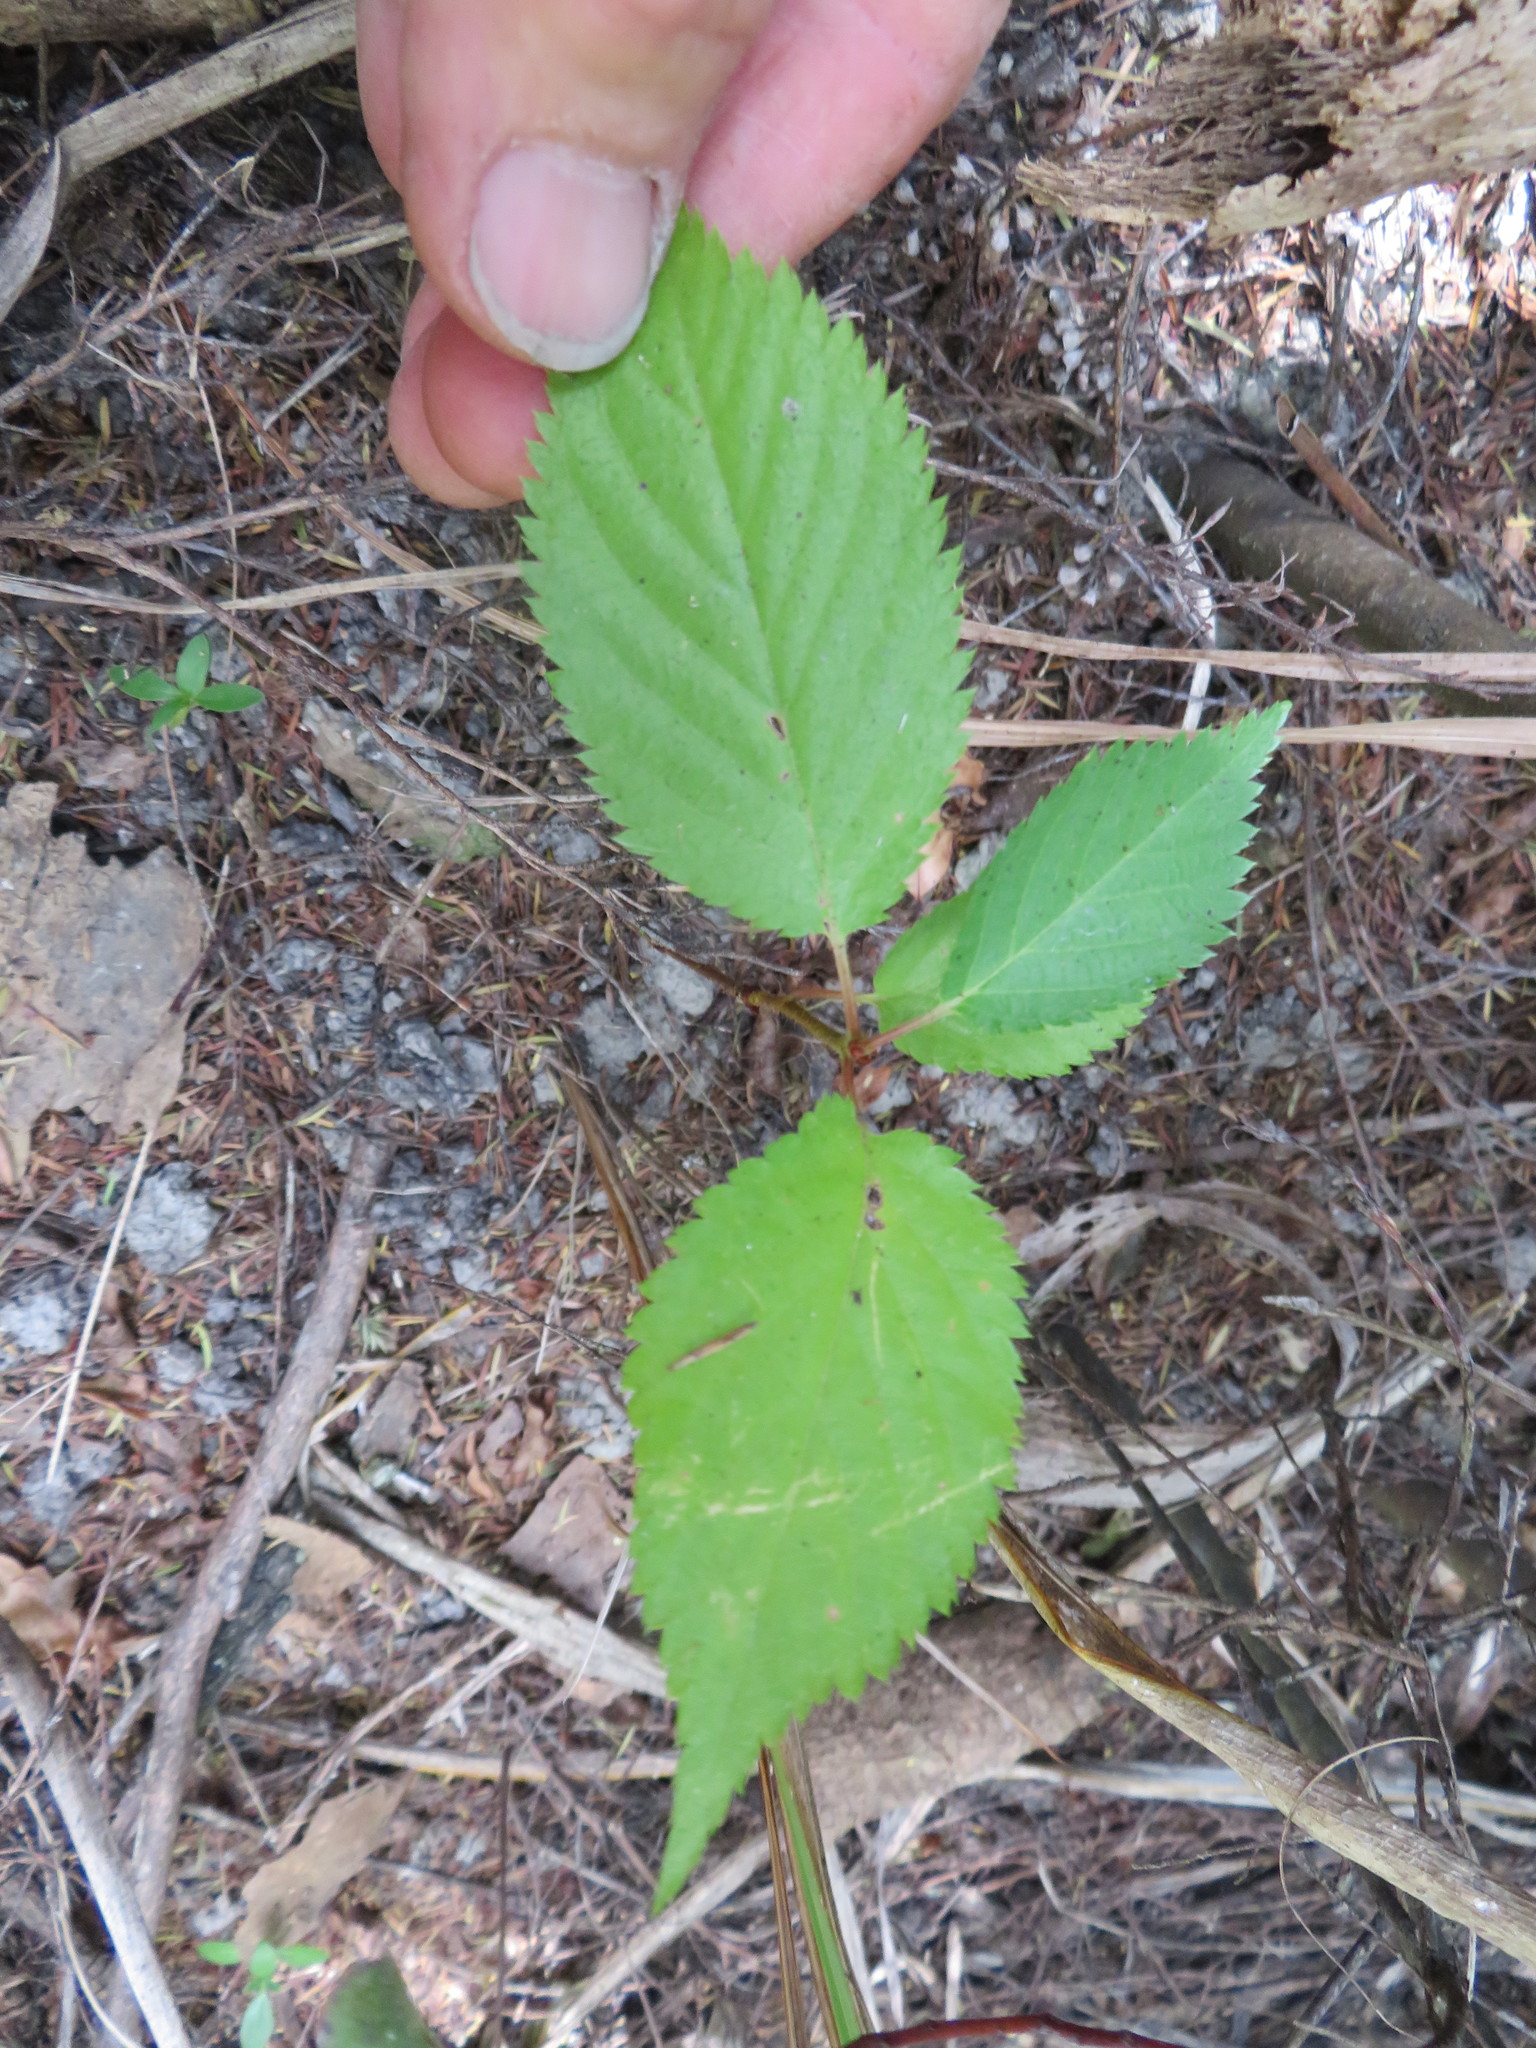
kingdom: Plantae
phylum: Tracheophyta
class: Magnoliopsida
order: Rosales
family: Rosaceae
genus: Prunus
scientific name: Prunus serrulata
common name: Japanese cherry
